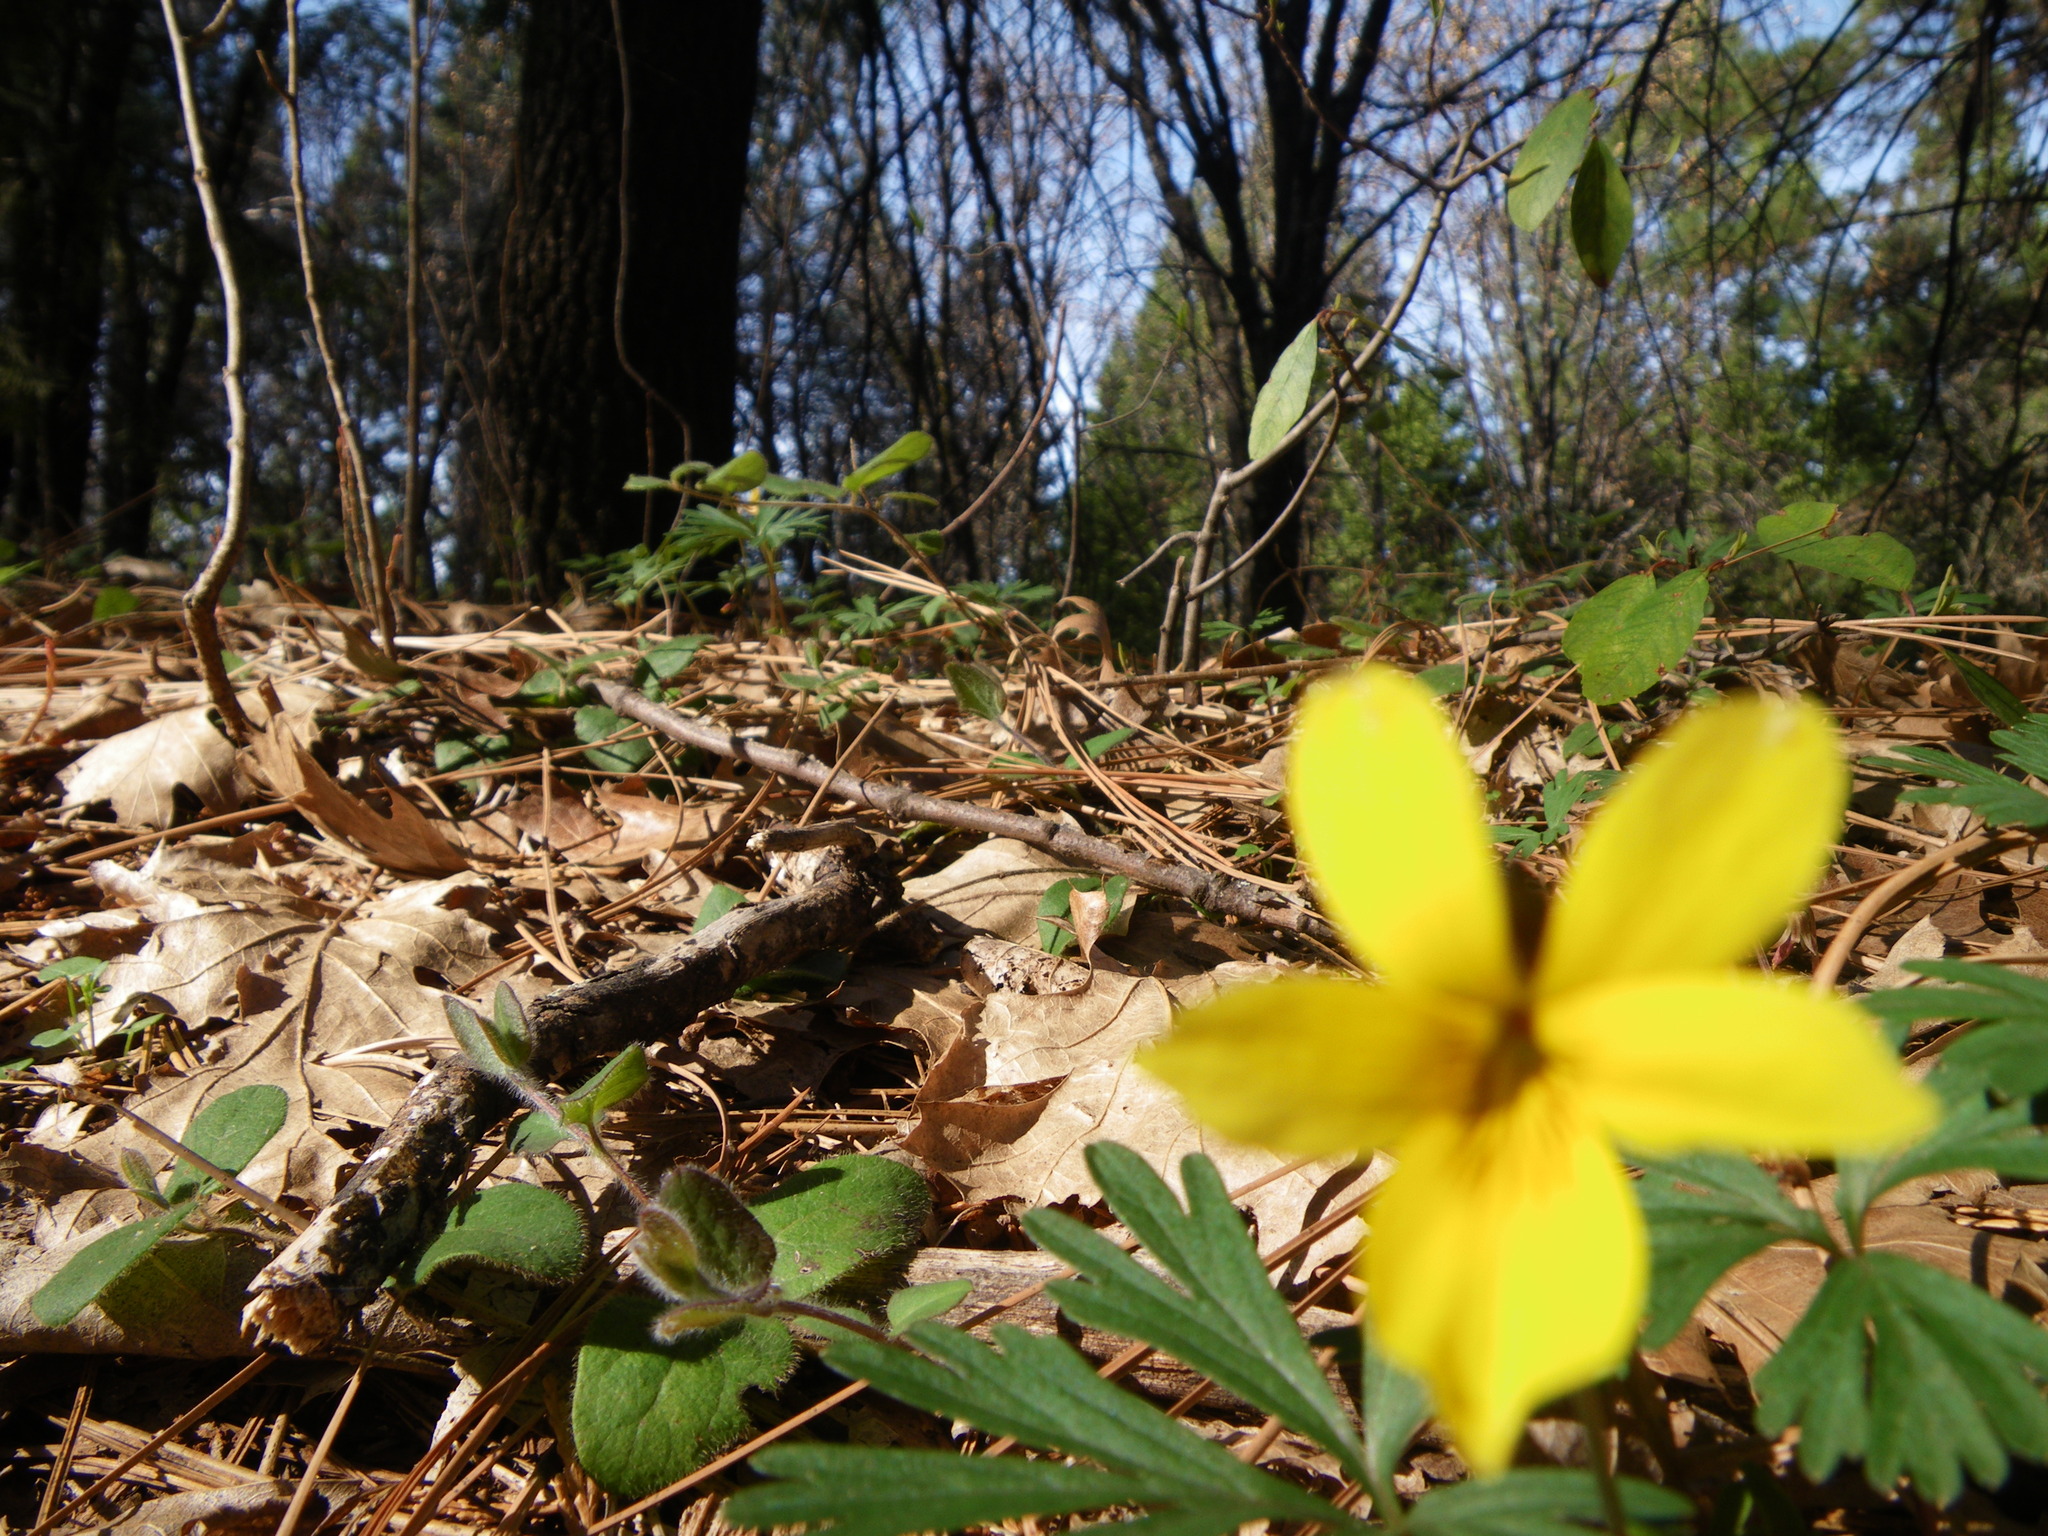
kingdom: Plantae
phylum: Tracheophyta
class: Magnoliopsida
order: Malpighiales
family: Violaceae
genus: Viola
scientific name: Viola sheltonii
